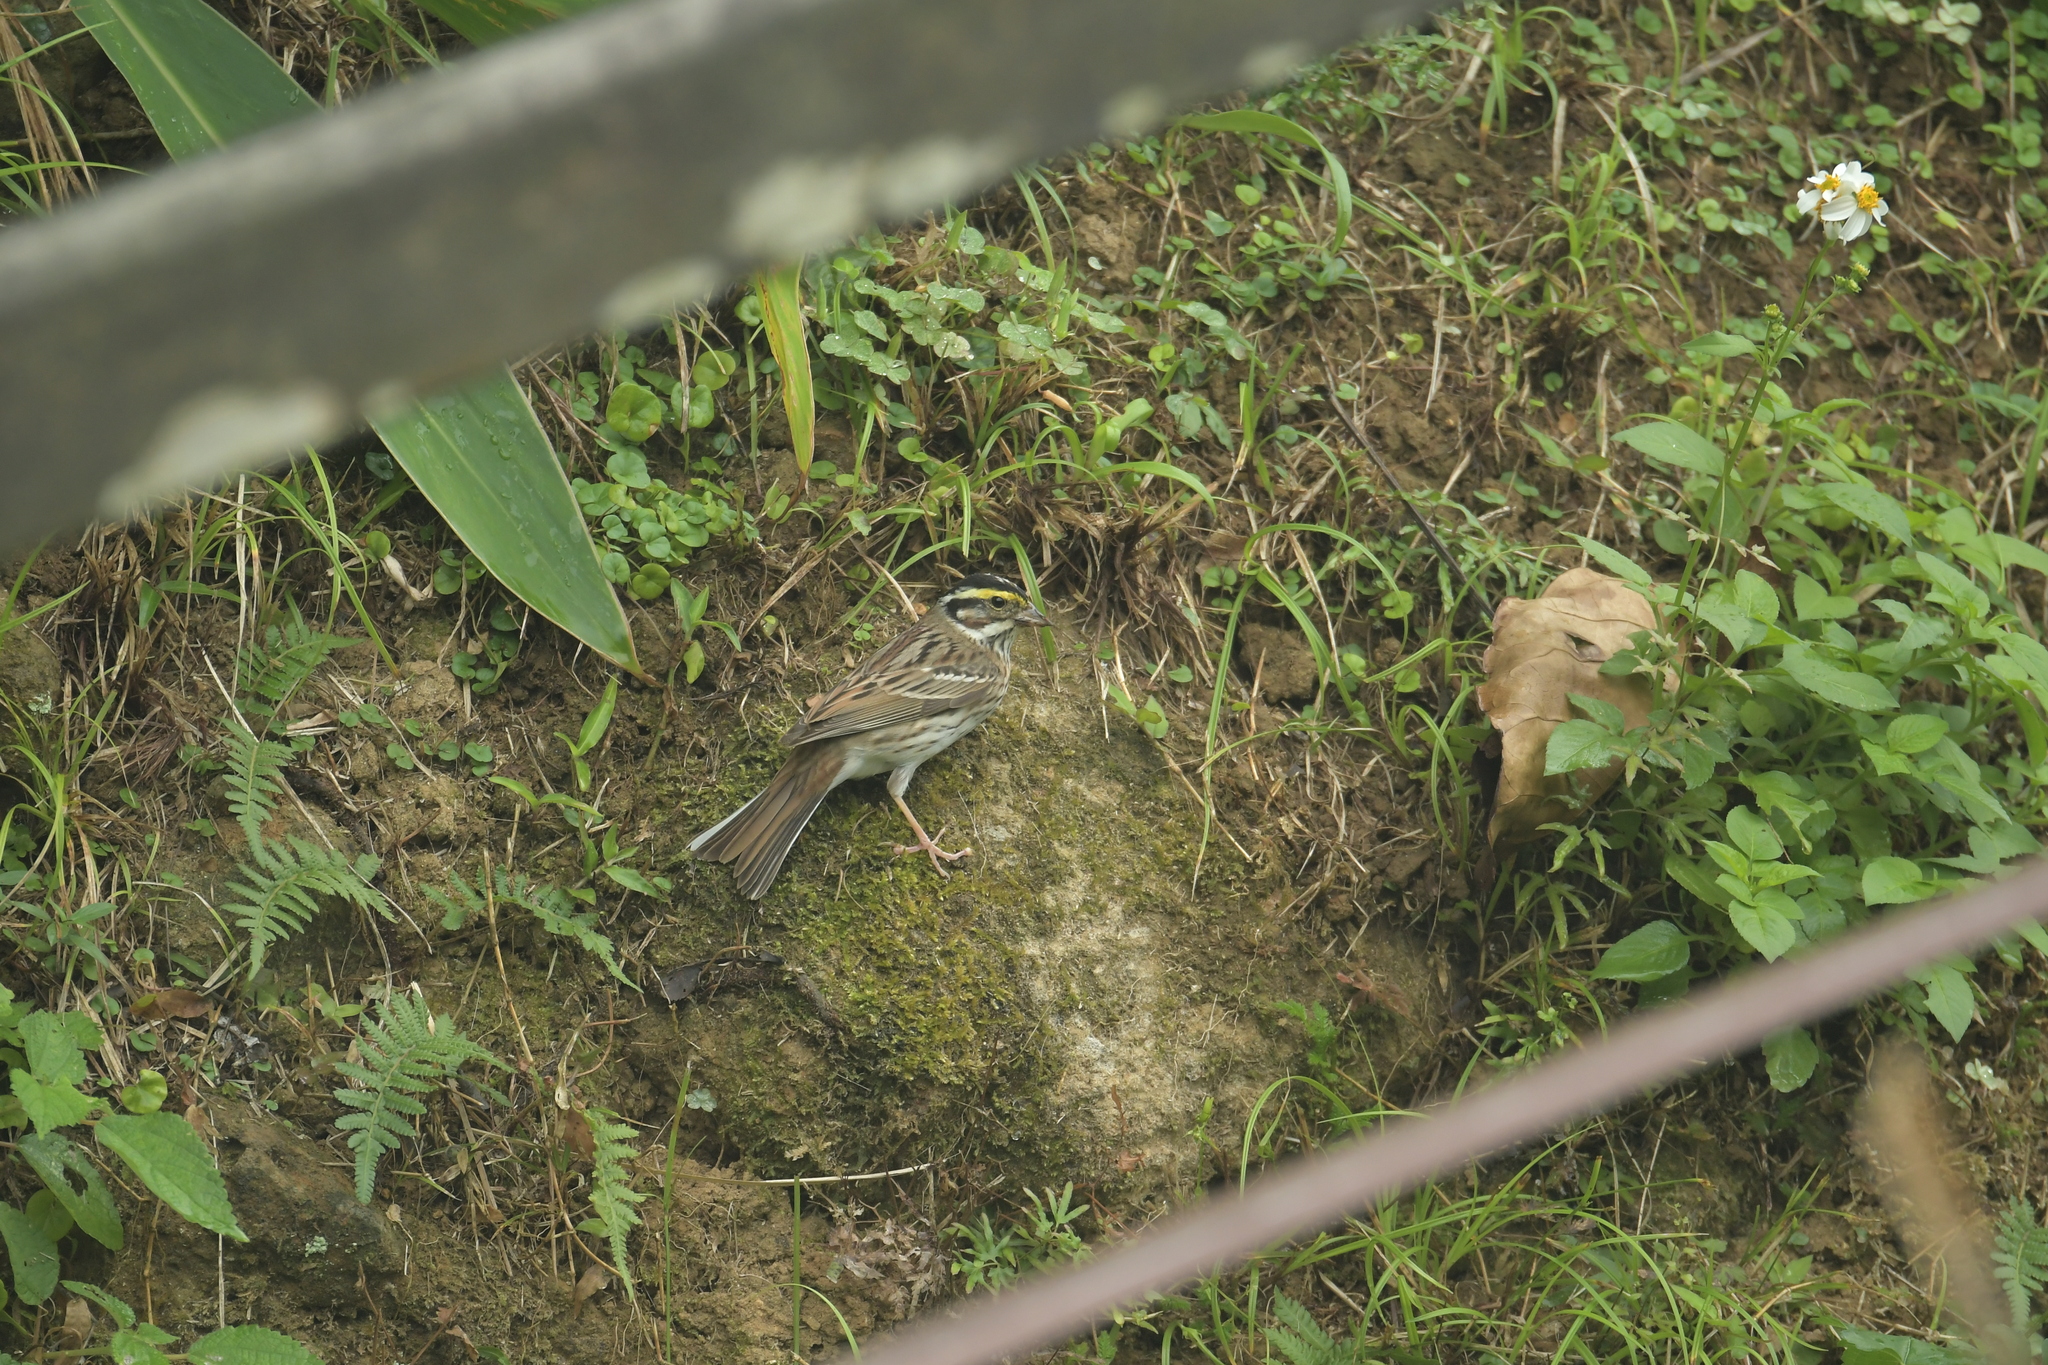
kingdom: Animalia
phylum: Chordata
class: Aves
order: Passeriformes
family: Emberizidae
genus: Emberiza
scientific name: Emberiza chrysophrys
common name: Yellow-browed bunting
